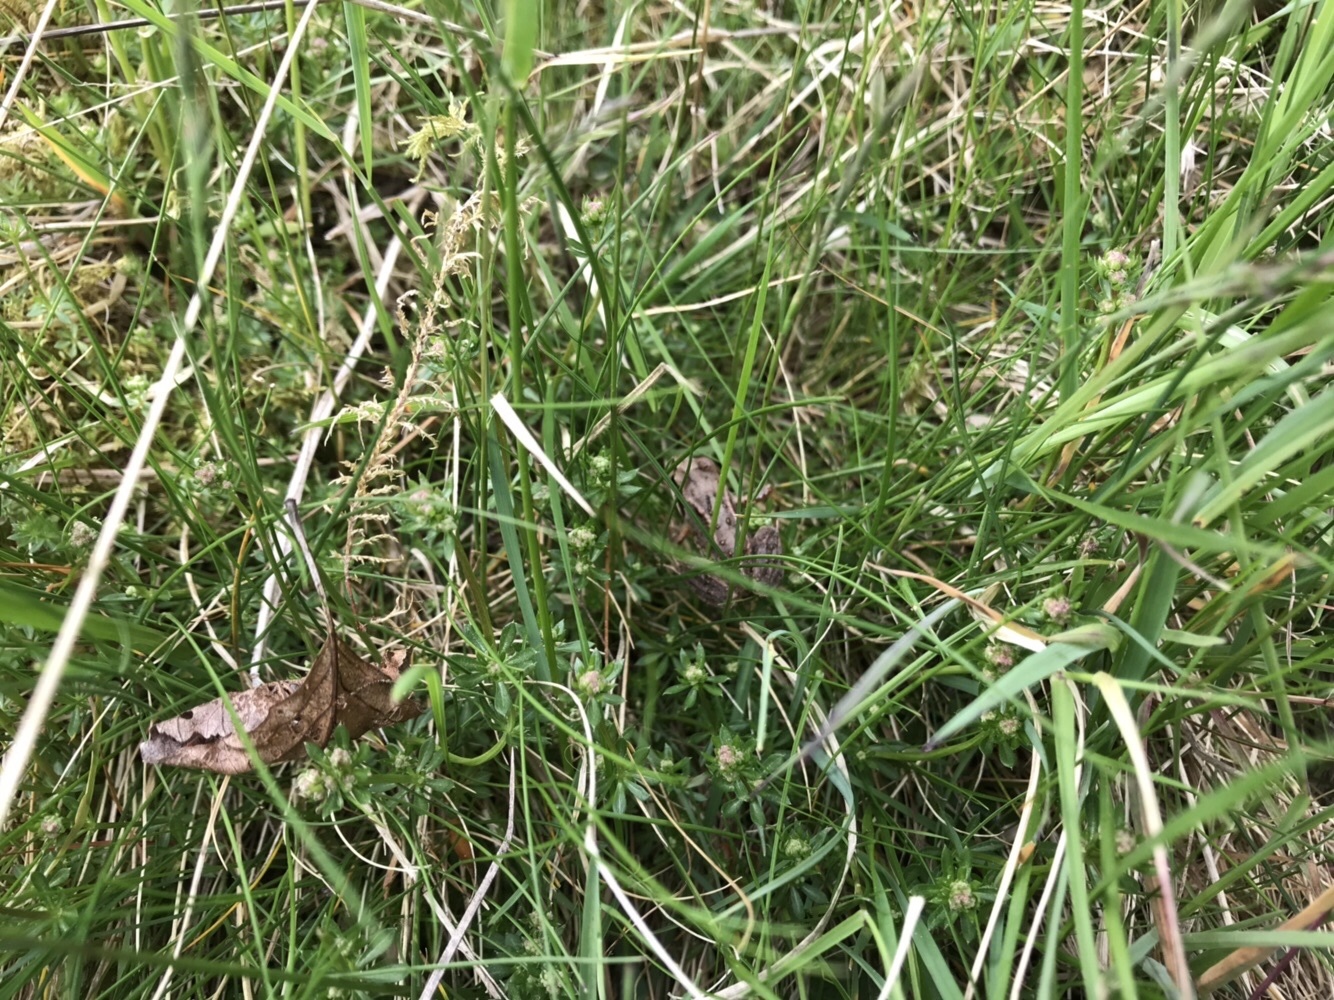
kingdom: Animalia
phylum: Chordata
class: Amphibia
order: Anura
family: Ranidae
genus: Rana
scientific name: Rana temporaria
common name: Common frog
